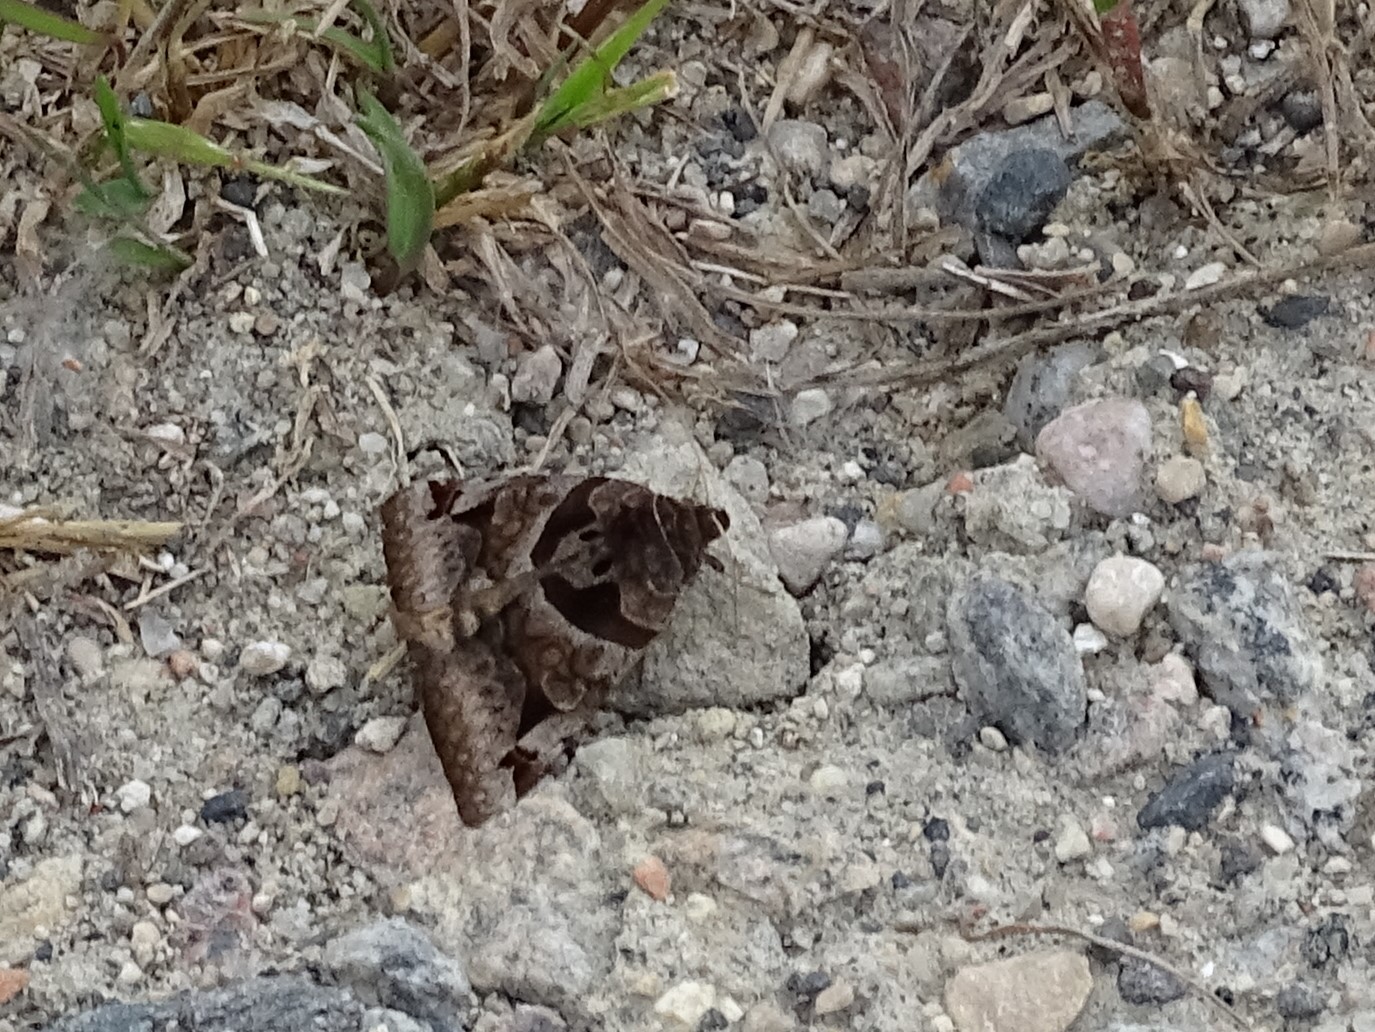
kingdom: Animalia
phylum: Arthropoda
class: Insecta
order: Lepidoptera
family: Erebidae
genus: Euclidia
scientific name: Euclidia cuspidea
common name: Toothed somberwing
